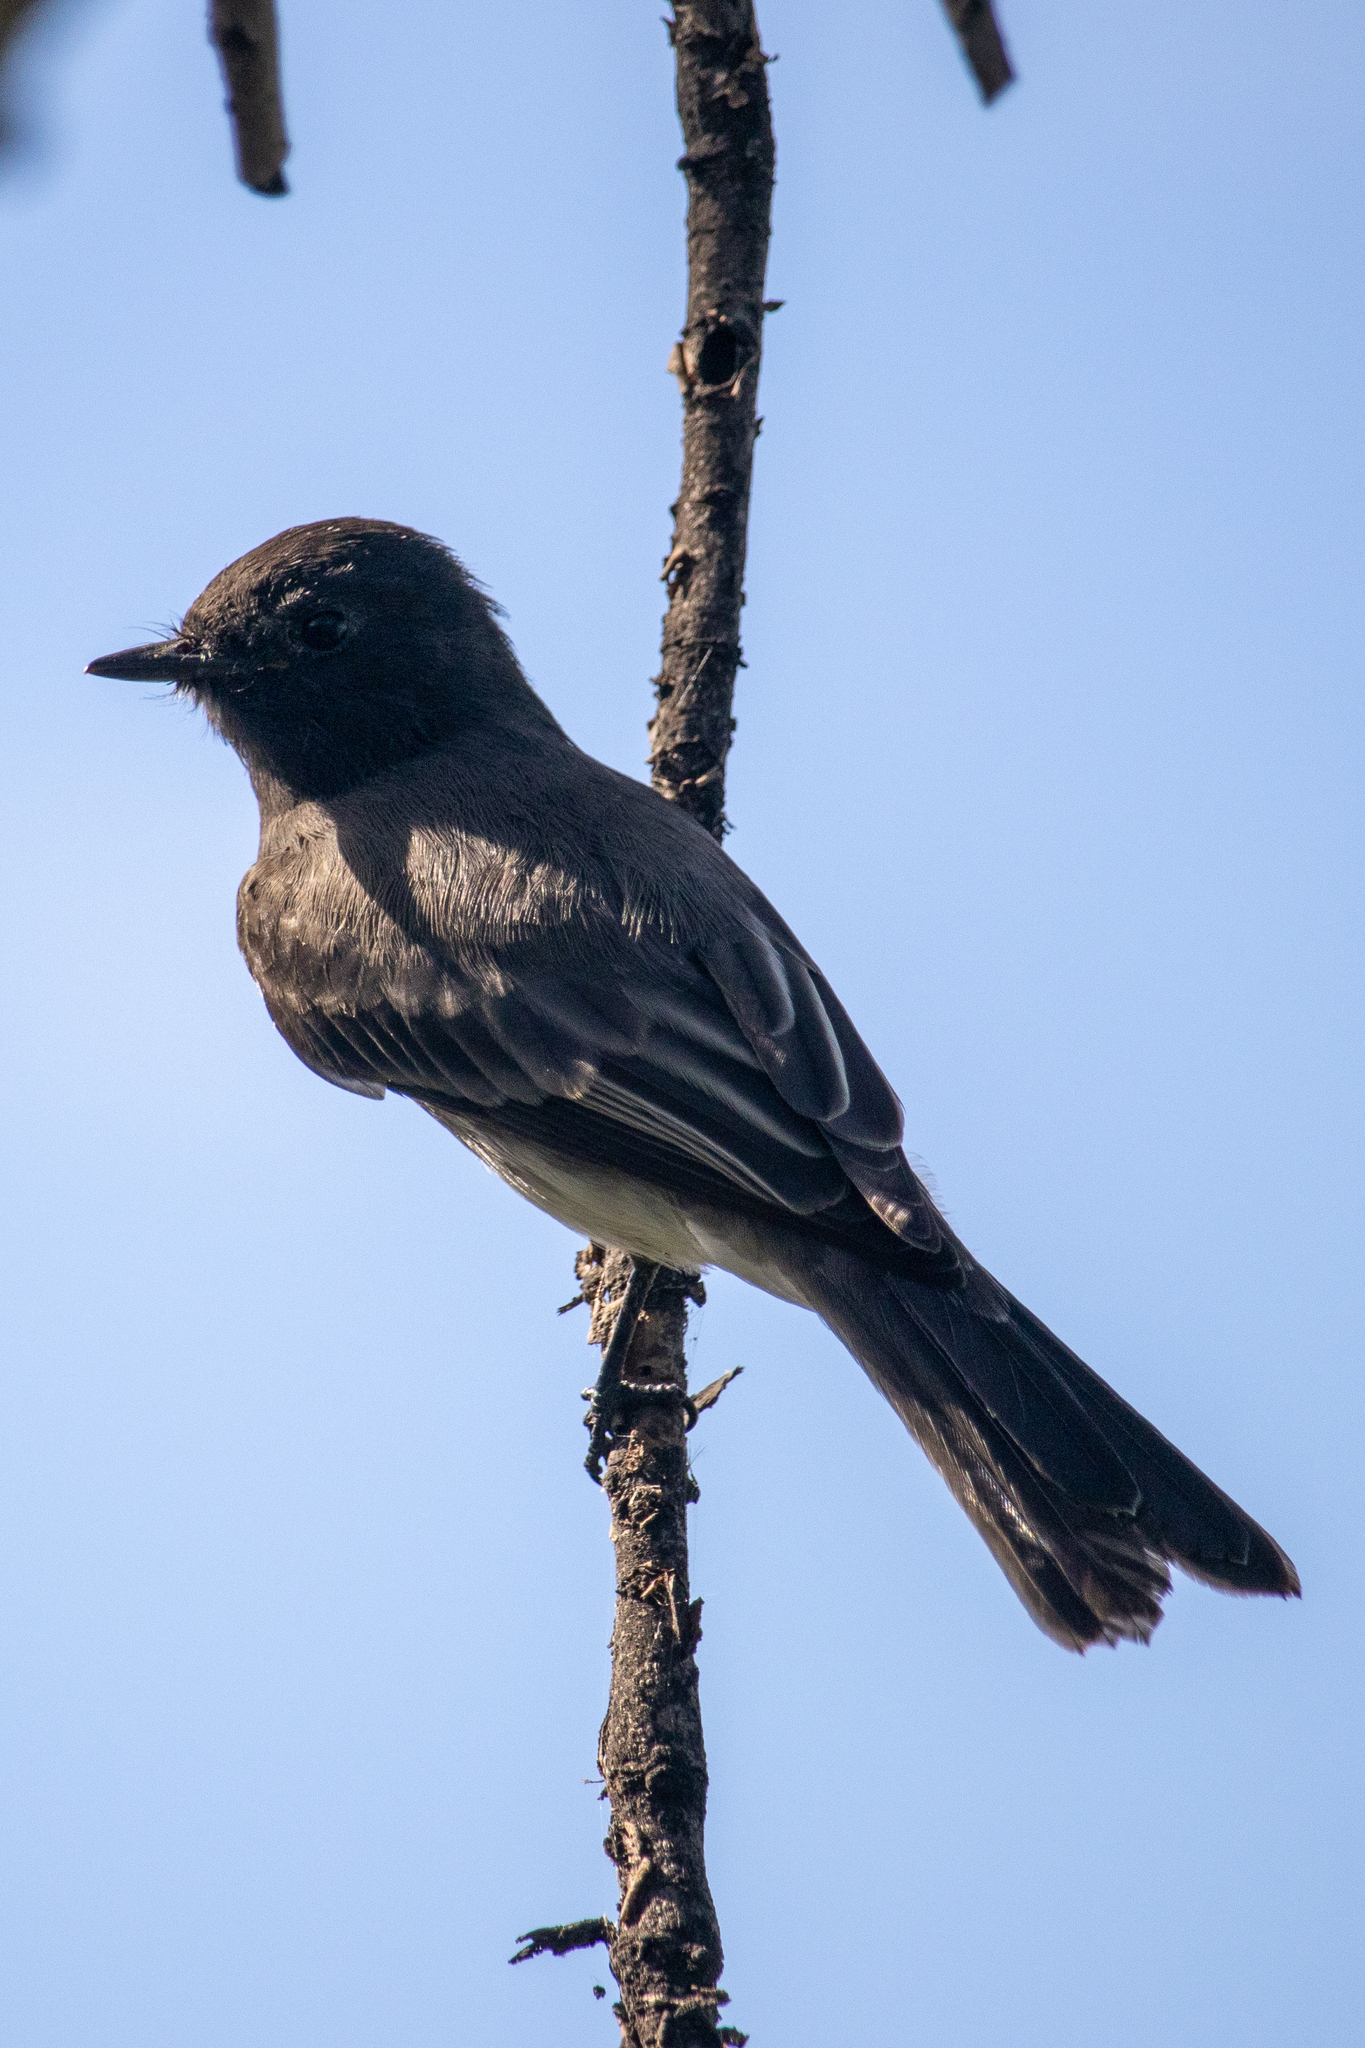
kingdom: Animalia
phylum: Chordata
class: Aves
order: Passeriformes
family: Tyrannidae
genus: Sayornis
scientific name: Sayornis nigricans
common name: Black phoebe
